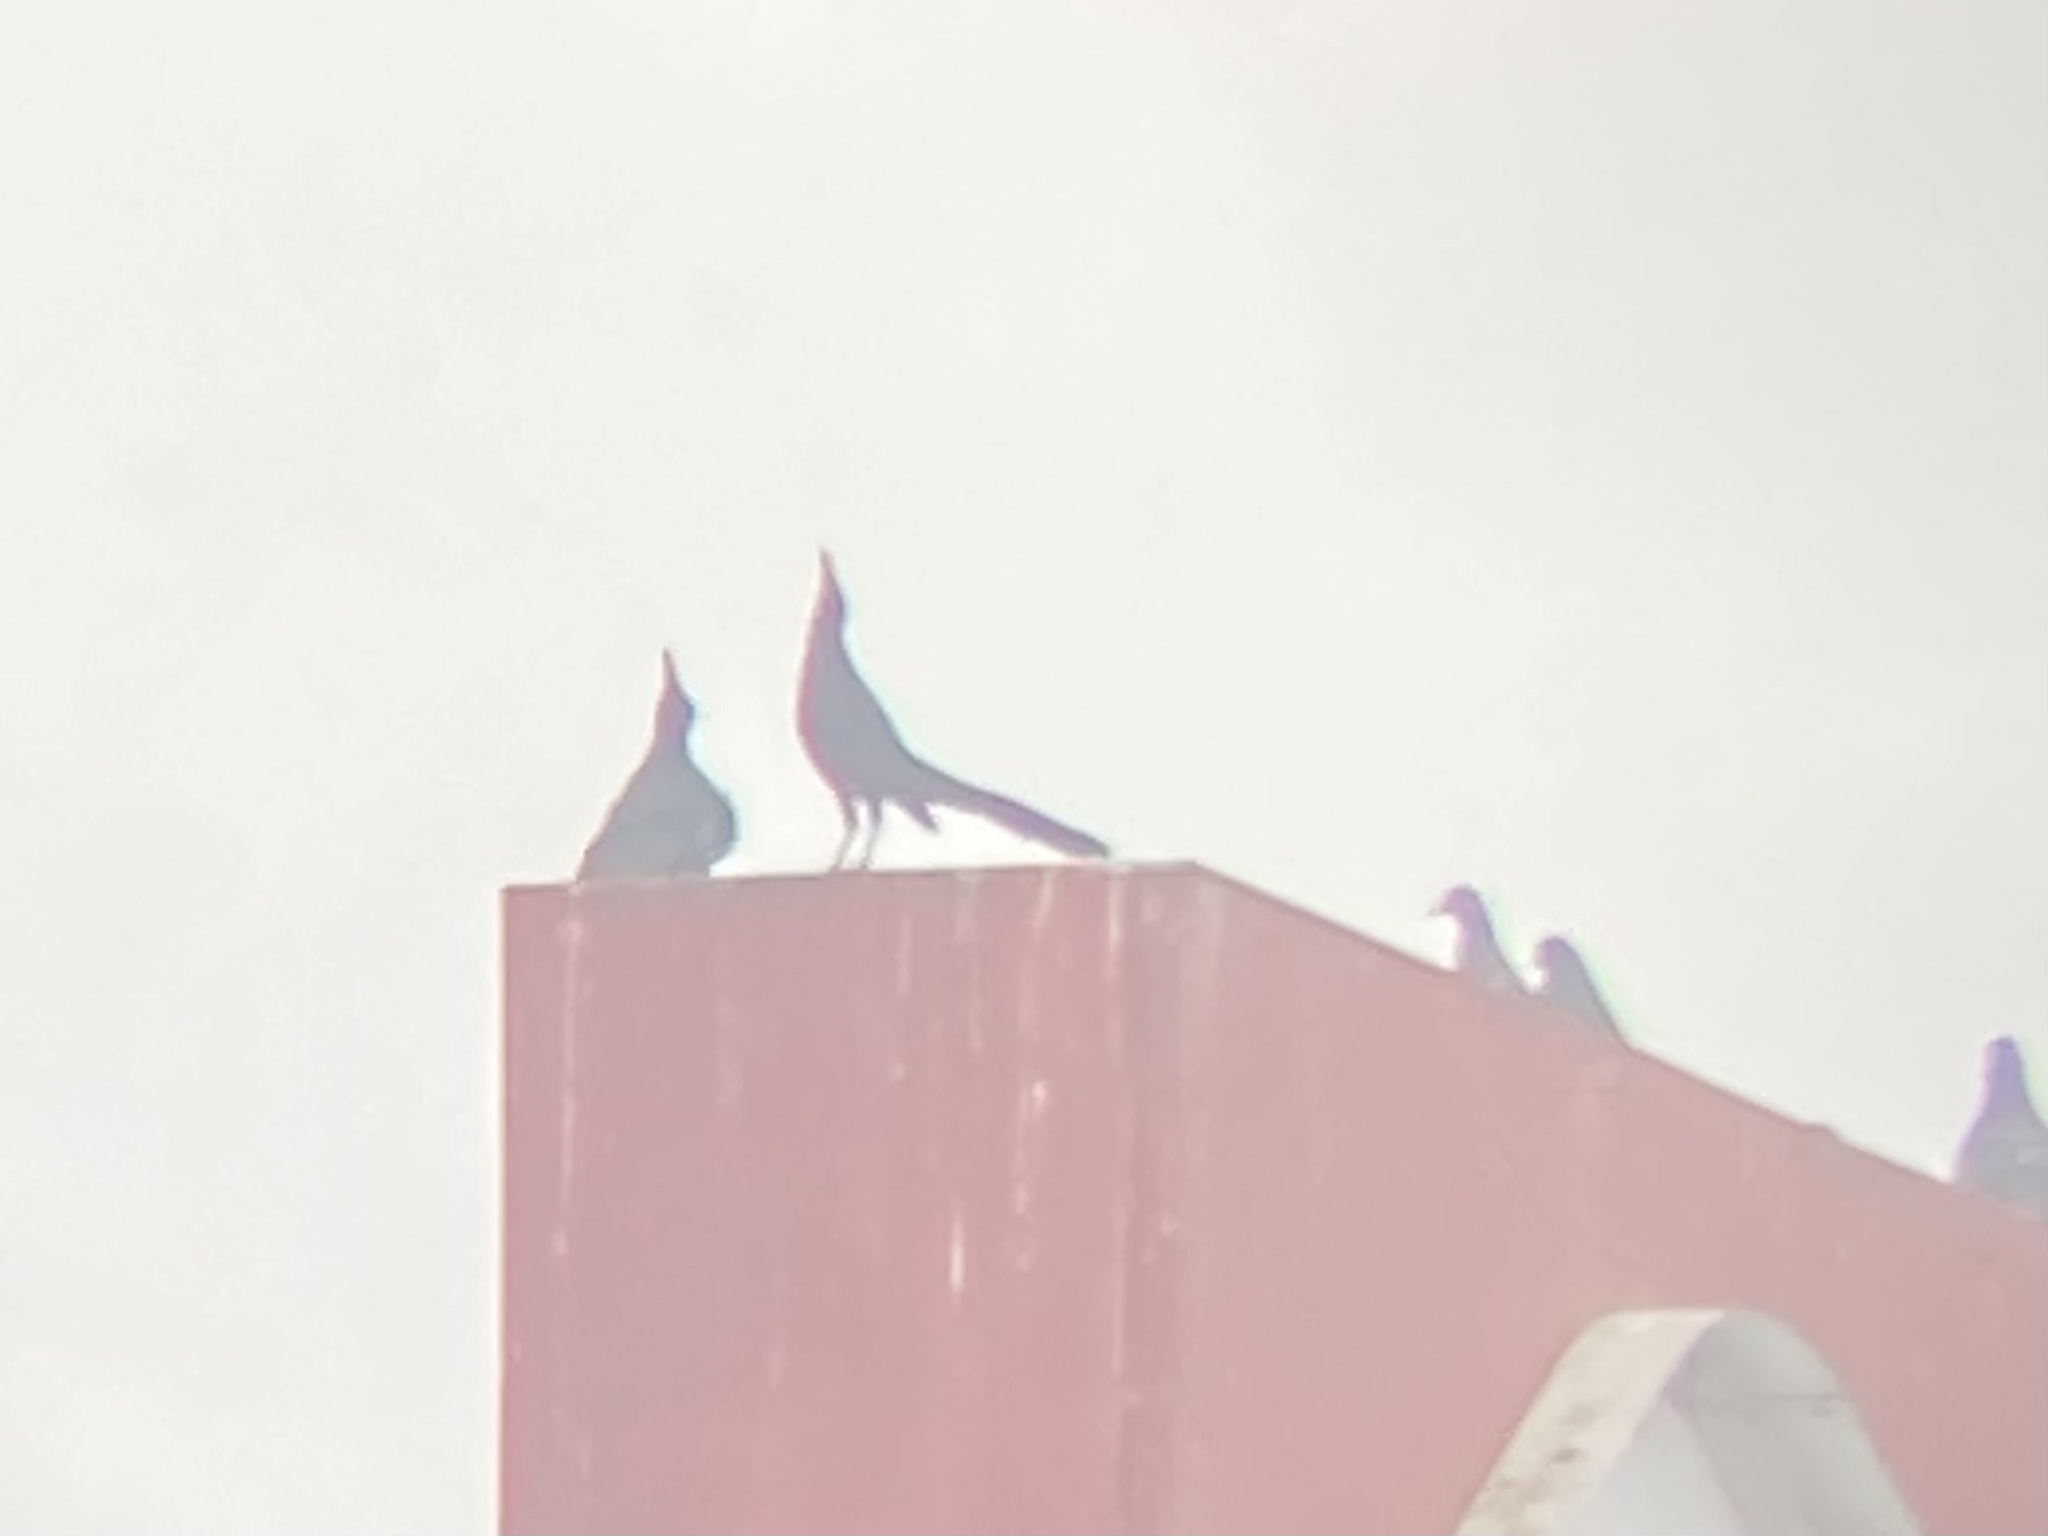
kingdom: Animalia
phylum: Chordata
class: Aves
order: Passeriformes
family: Icteridae
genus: Quiscalus
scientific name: Quiscalus mexicanus
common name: Great-tailed grackle
